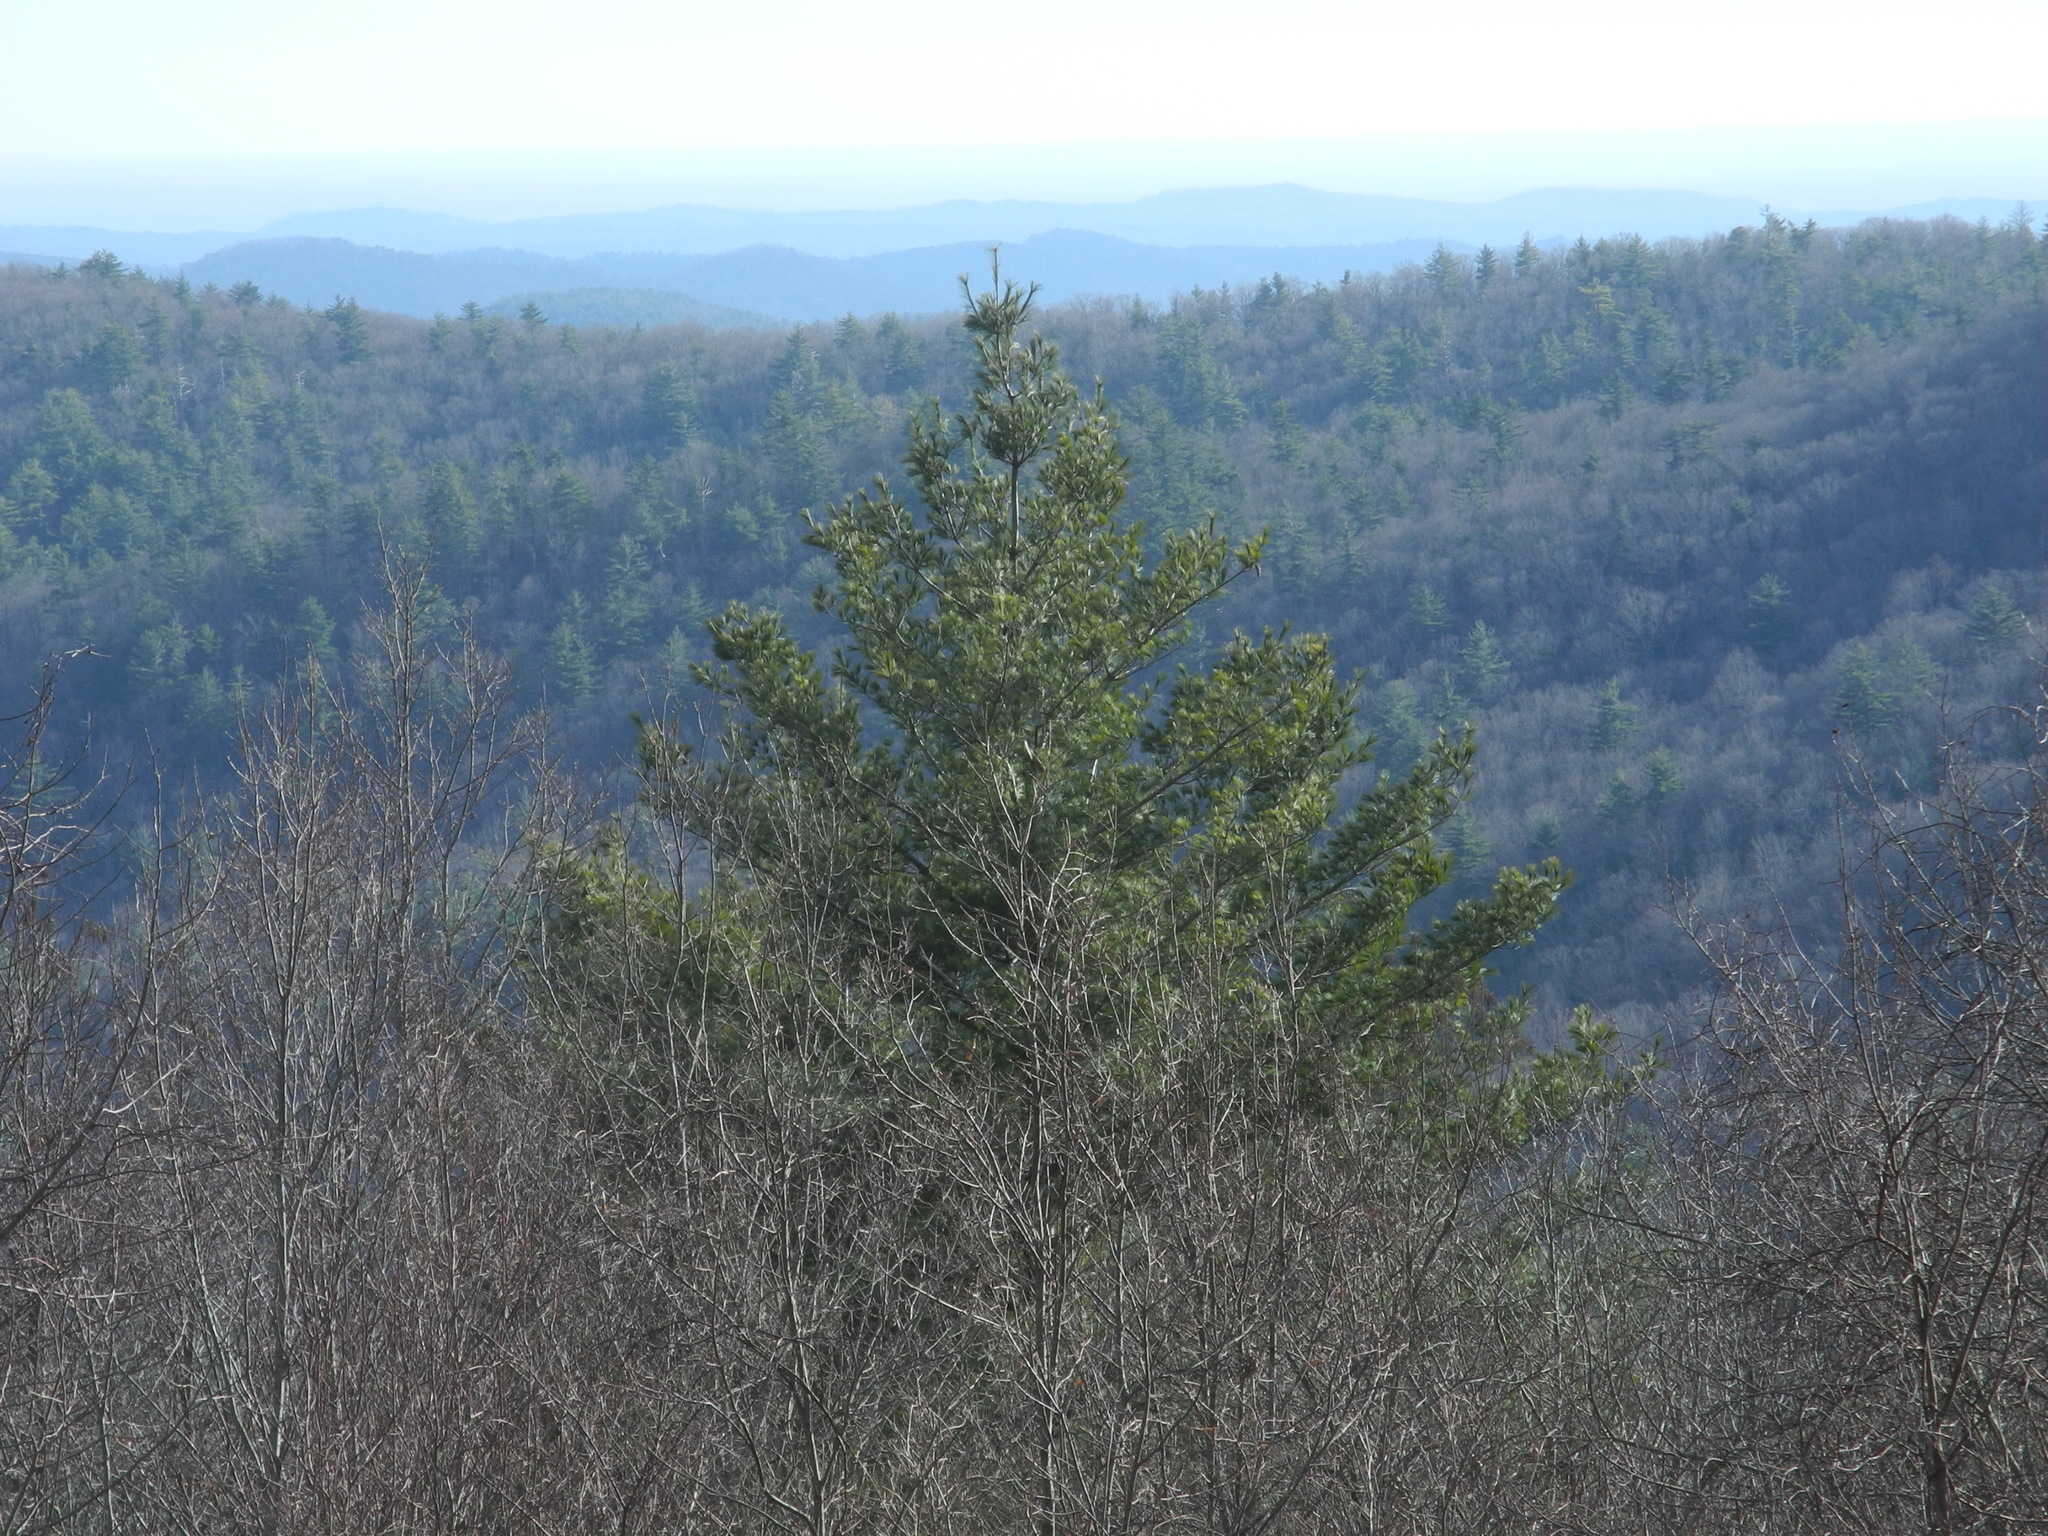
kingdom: Plantae
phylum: Tracheophyta
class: Pinopsida
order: Pinales
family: Pinaceae
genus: Pinus
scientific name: Pinus strobus
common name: Weymouth pine
